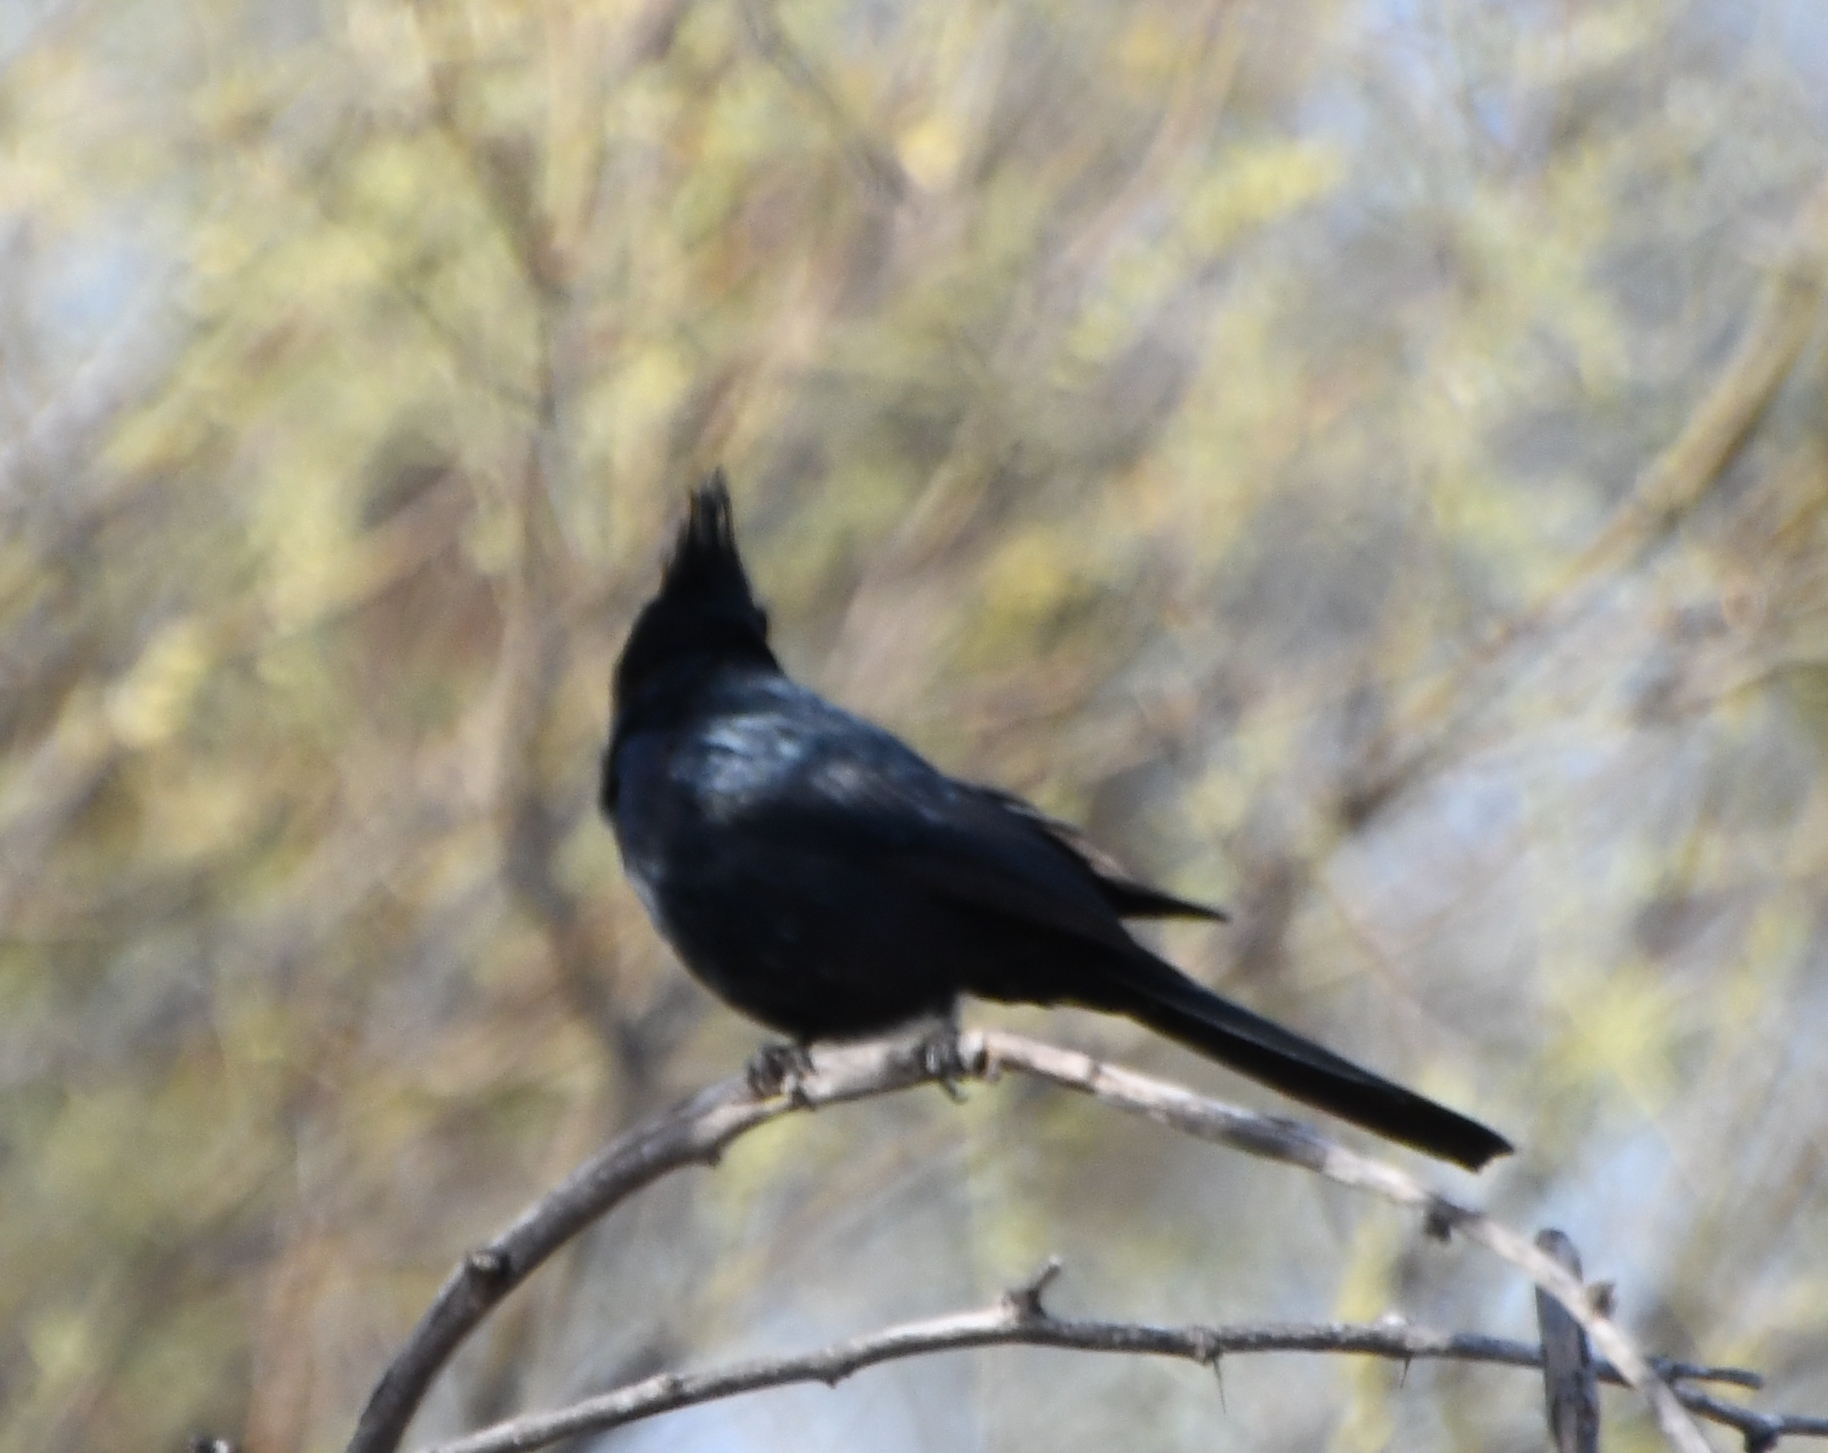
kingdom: Animalia
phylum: Chordata
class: Aves
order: Passeriformes
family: Ptilogonatidae
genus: Phainopepla
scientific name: Phainopepla nitens
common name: Phainopepla
